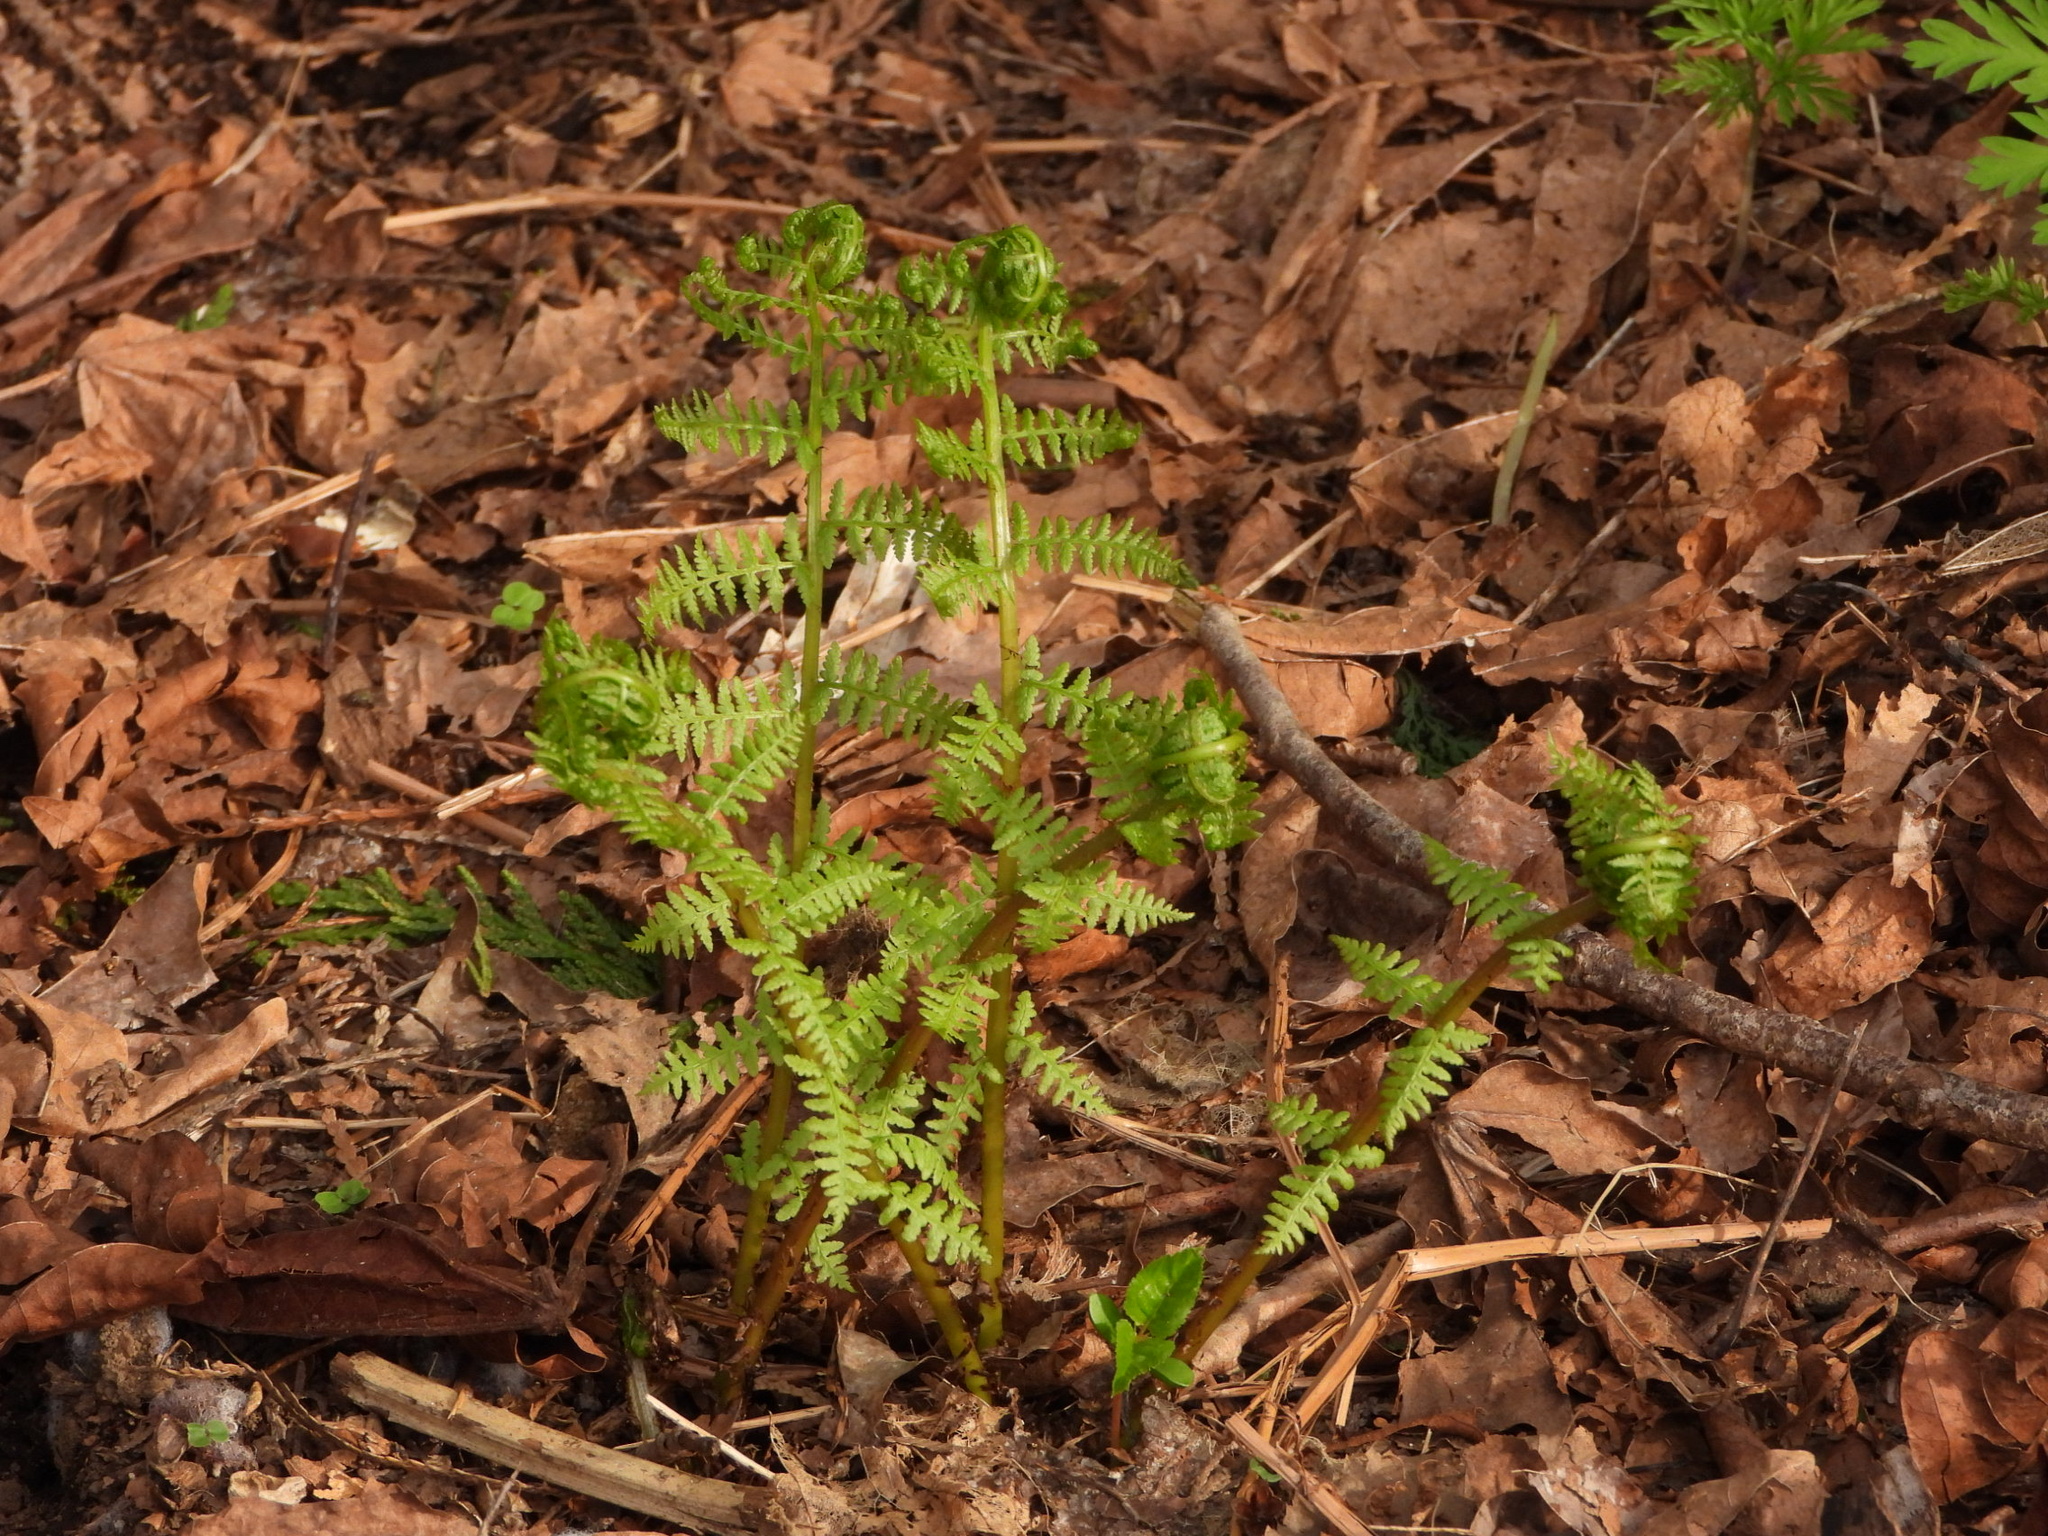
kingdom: Plantae
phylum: Tracheophyta
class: Polypodiopsida
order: Polypodiales
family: Athyriaceae
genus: Athyrium
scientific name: Athyrium filix-femina
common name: Lady fern
